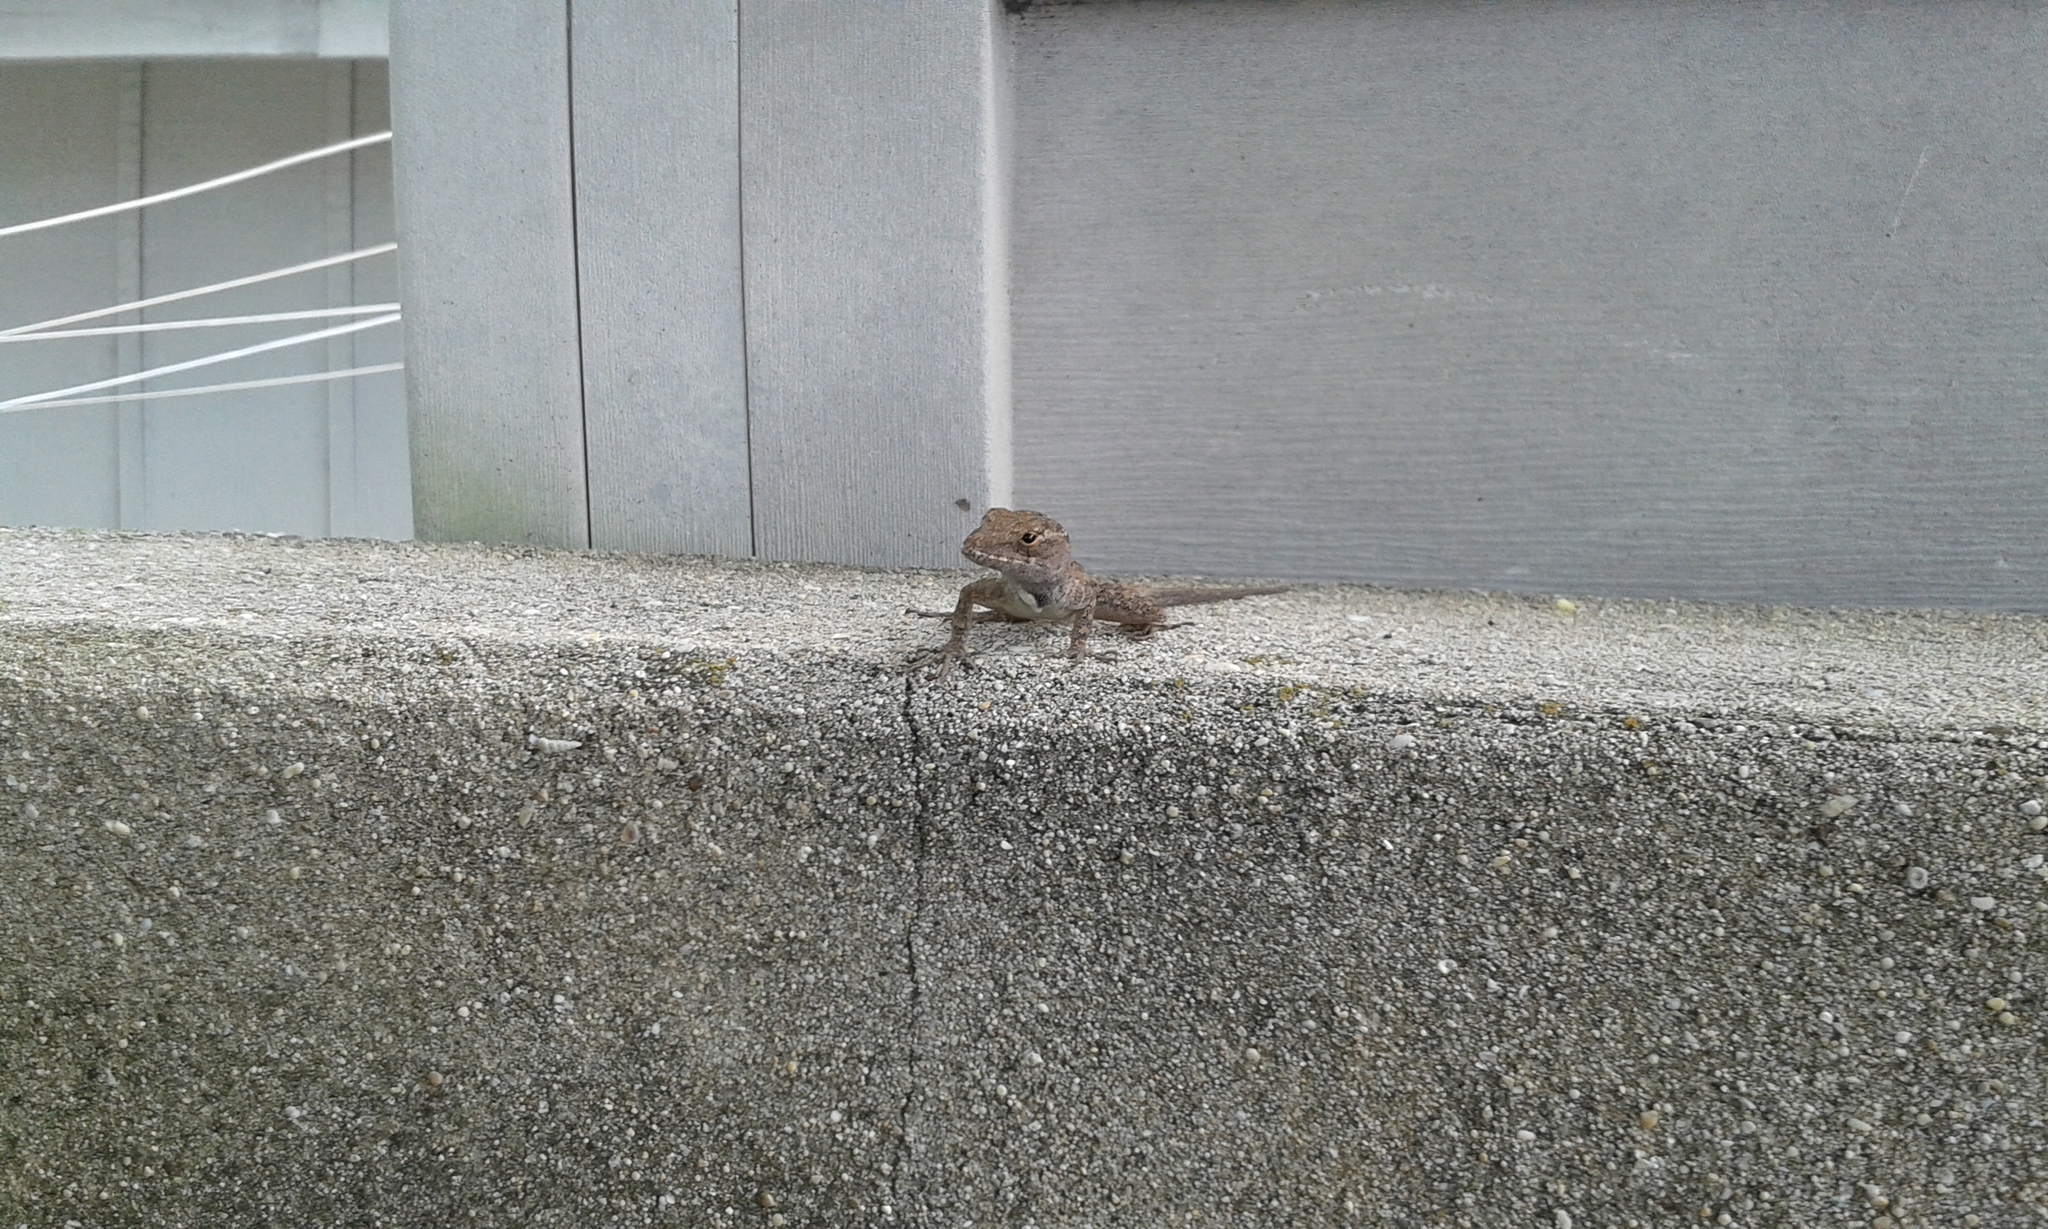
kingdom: Animalia
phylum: Chordata
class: Squamata
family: Dactyloidae
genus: Anolis
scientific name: Anolis sagrei
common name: Brown anole
